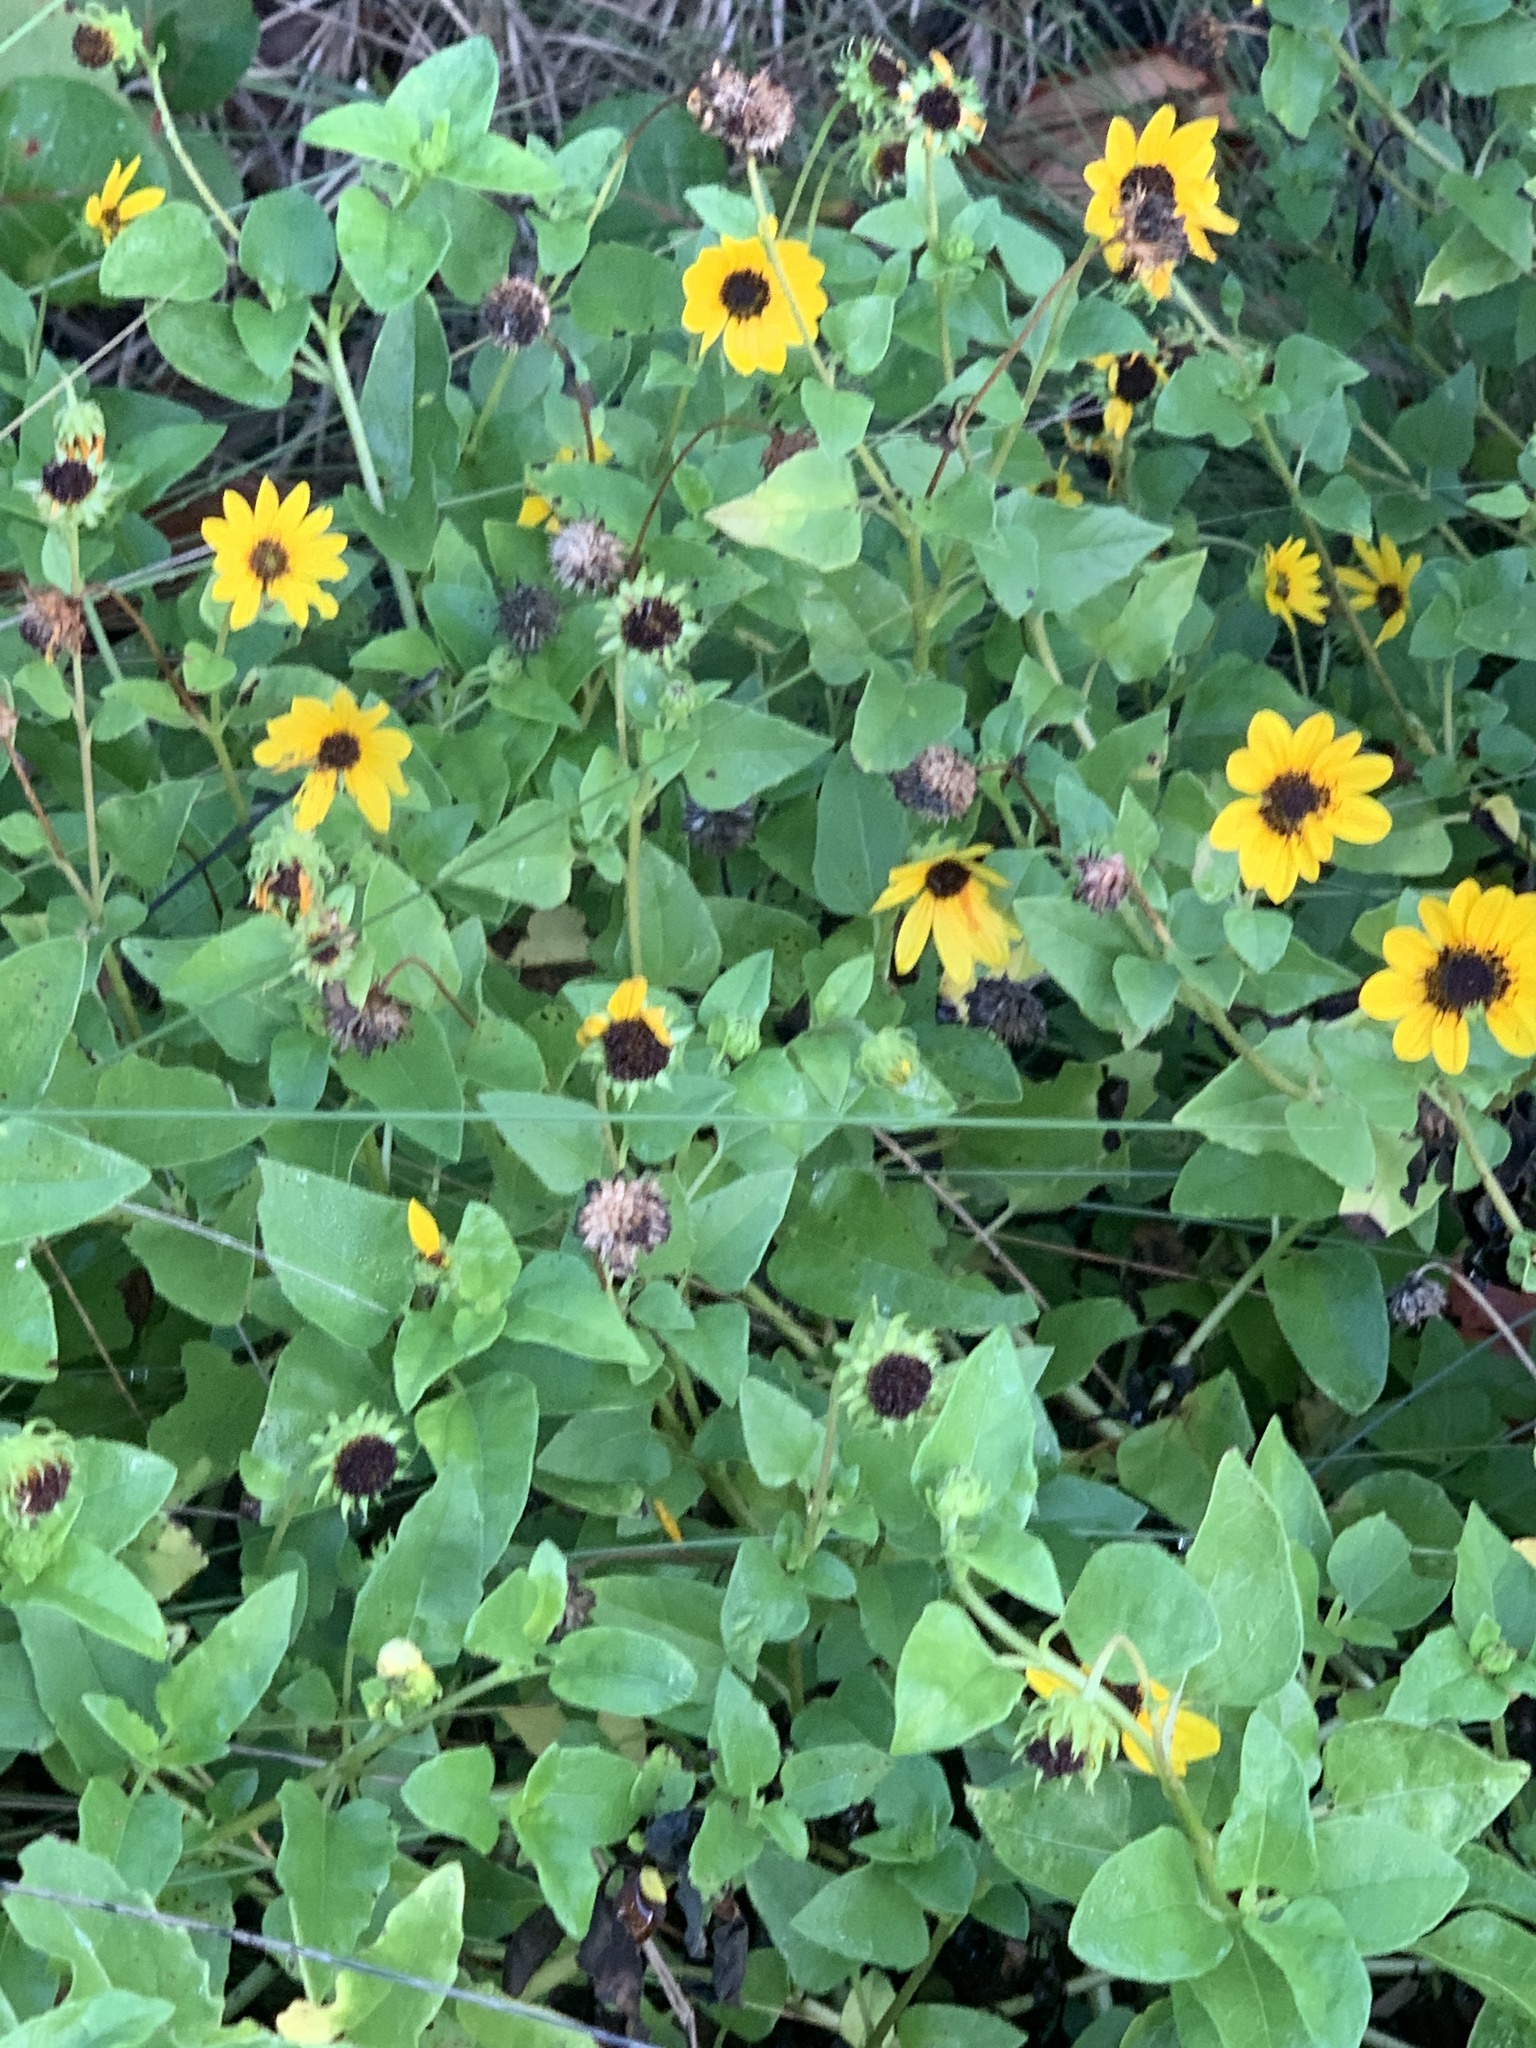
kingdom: Plantae
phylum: Tracheophyta
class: Magnoliopsida
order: Asterales
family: Asteraceae
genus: Helianthus
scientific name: Helianthus debilis
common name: Weak sunflower
